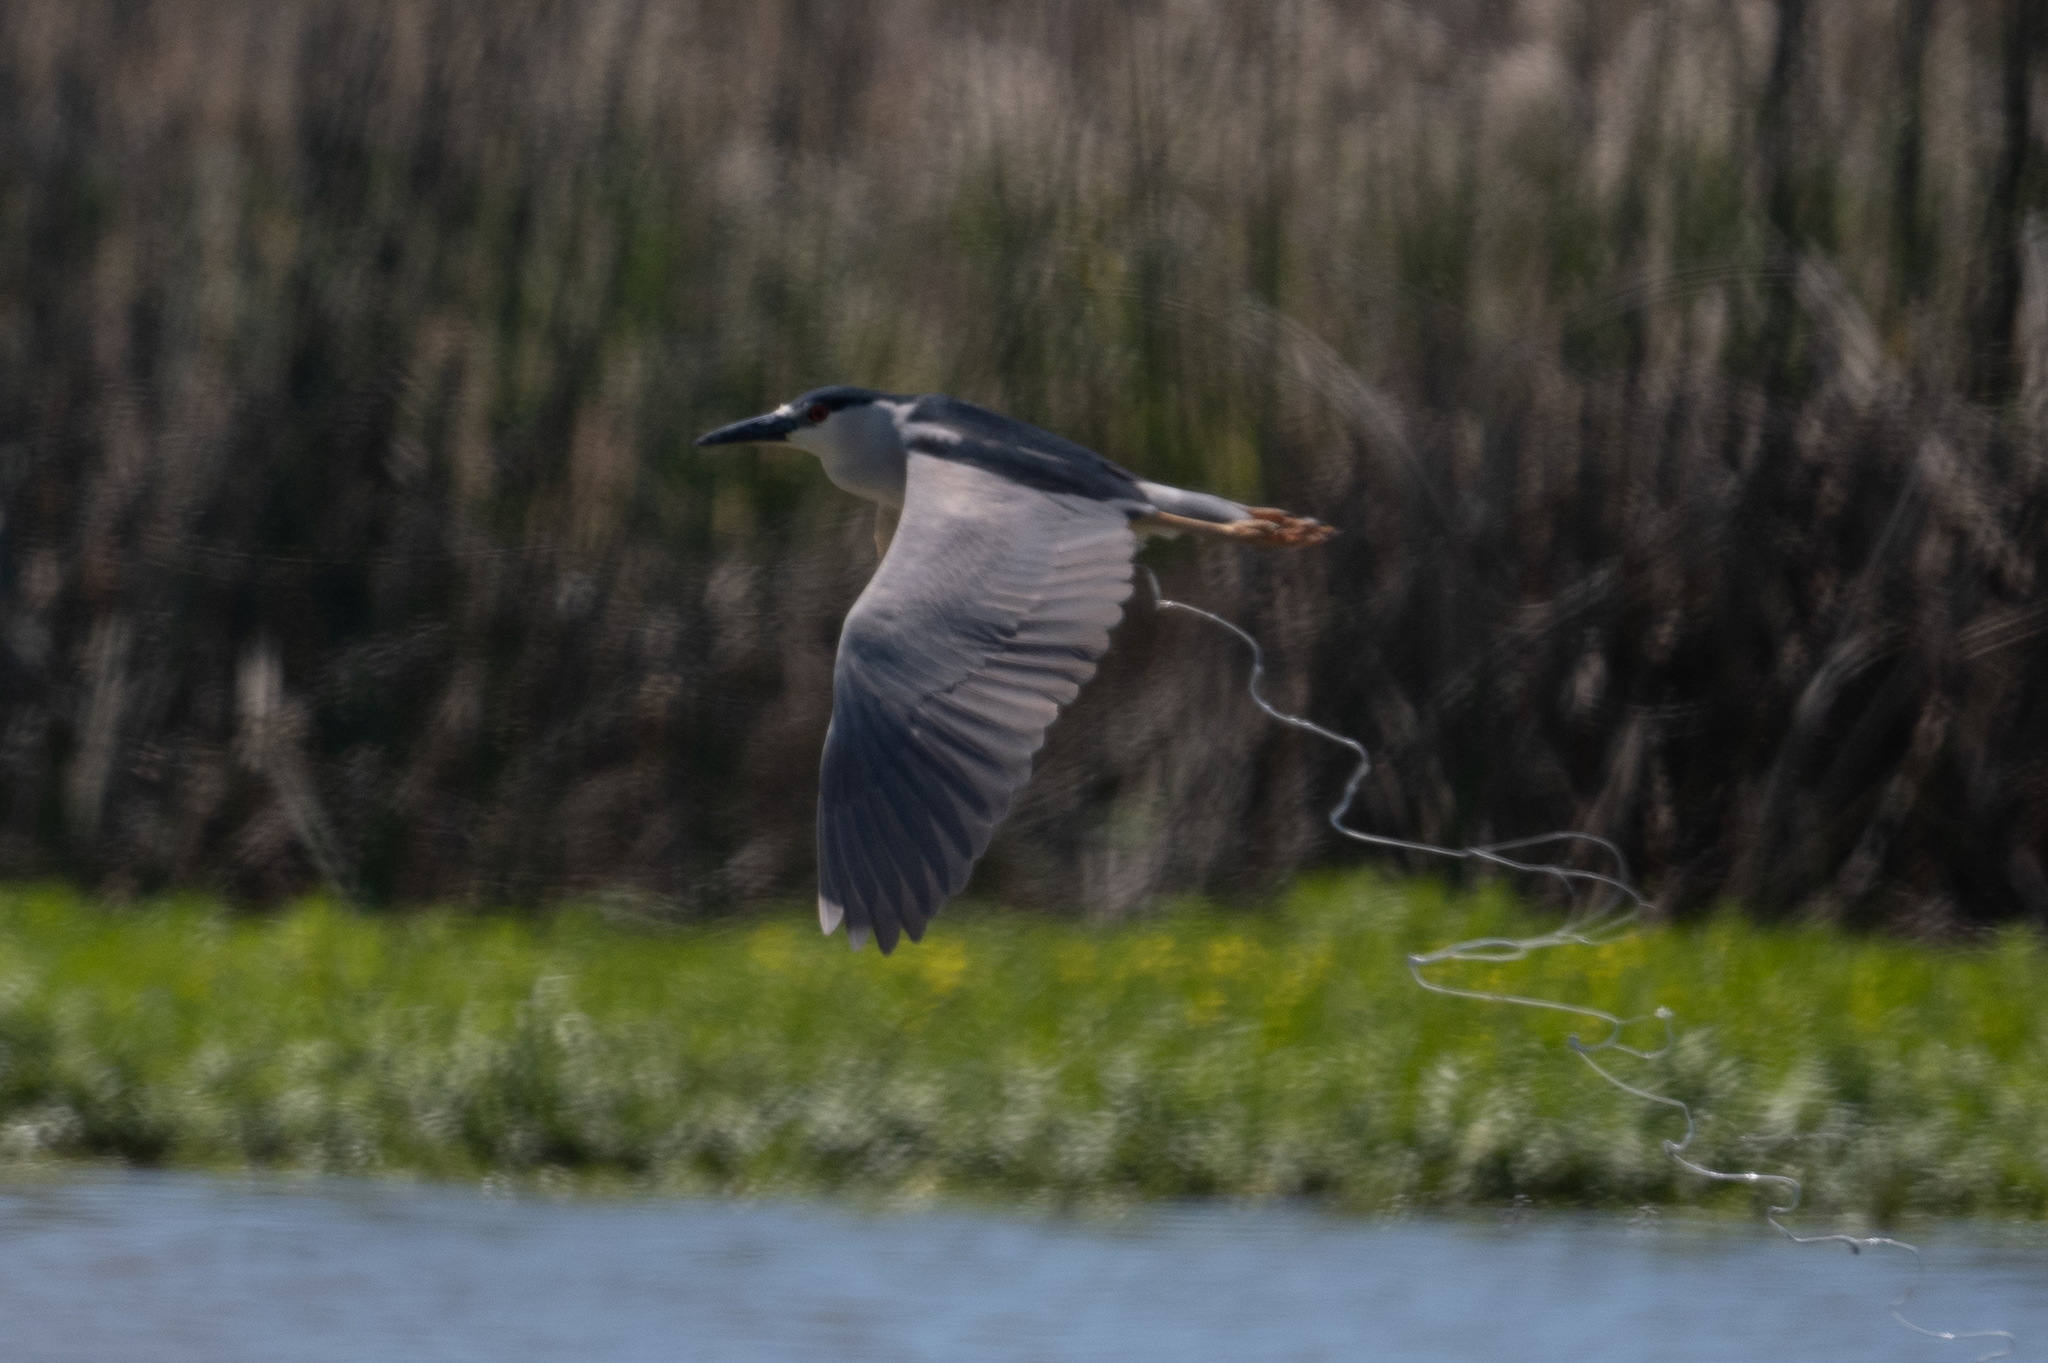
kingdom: Animalia
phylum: Chordata
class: Aves
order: Pelecaniformes
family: Ardeidae
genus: Nycticorax
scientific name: Nycticorax nycticorax
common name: Black-crowned night heron
